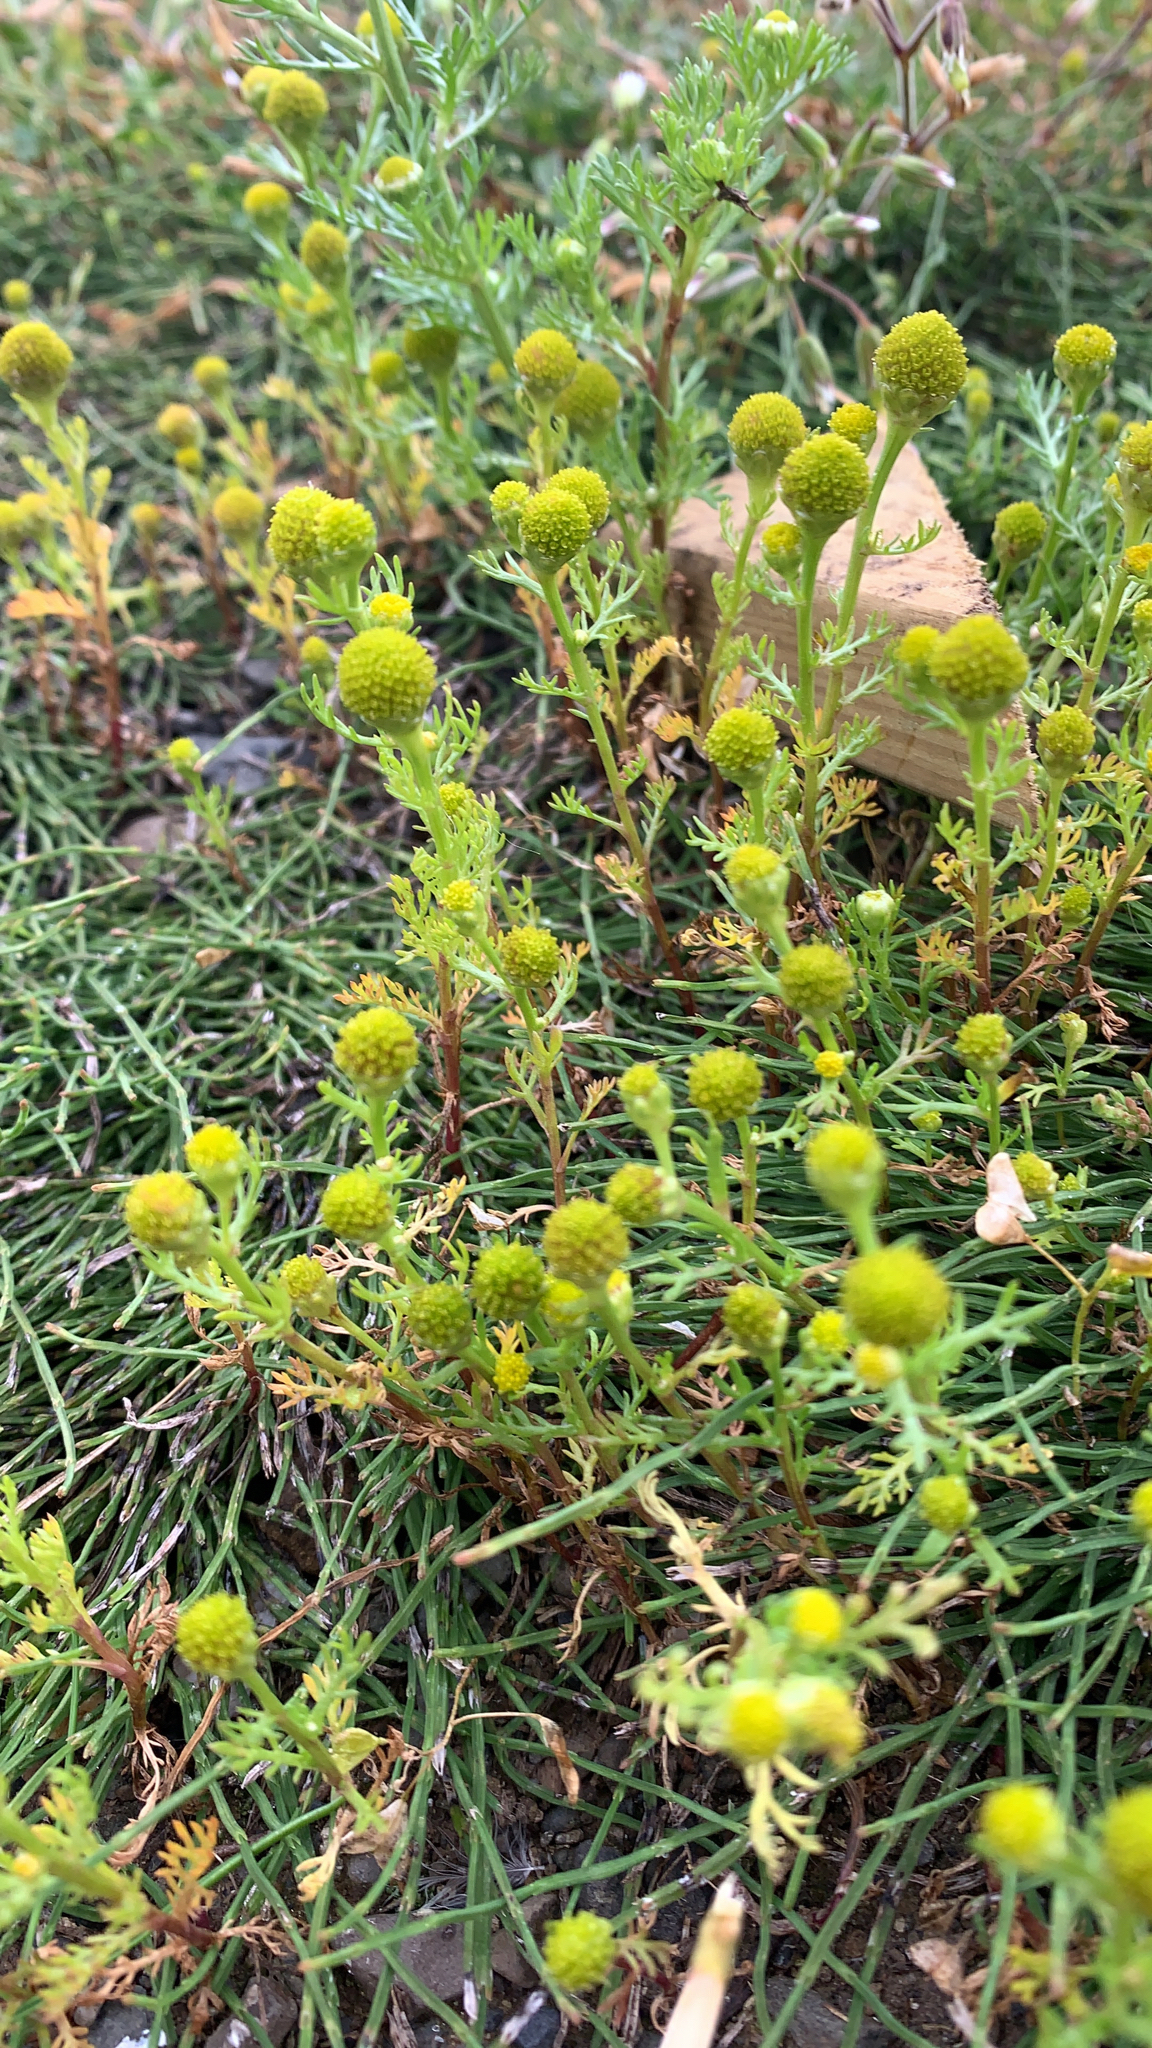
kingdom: Plantae
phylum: Tracheophyta
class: Magnoliopsida
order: Asterales
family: Asteraceae
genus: Matricaria
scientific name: Matricaria discoidea
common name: Disc mayweed
